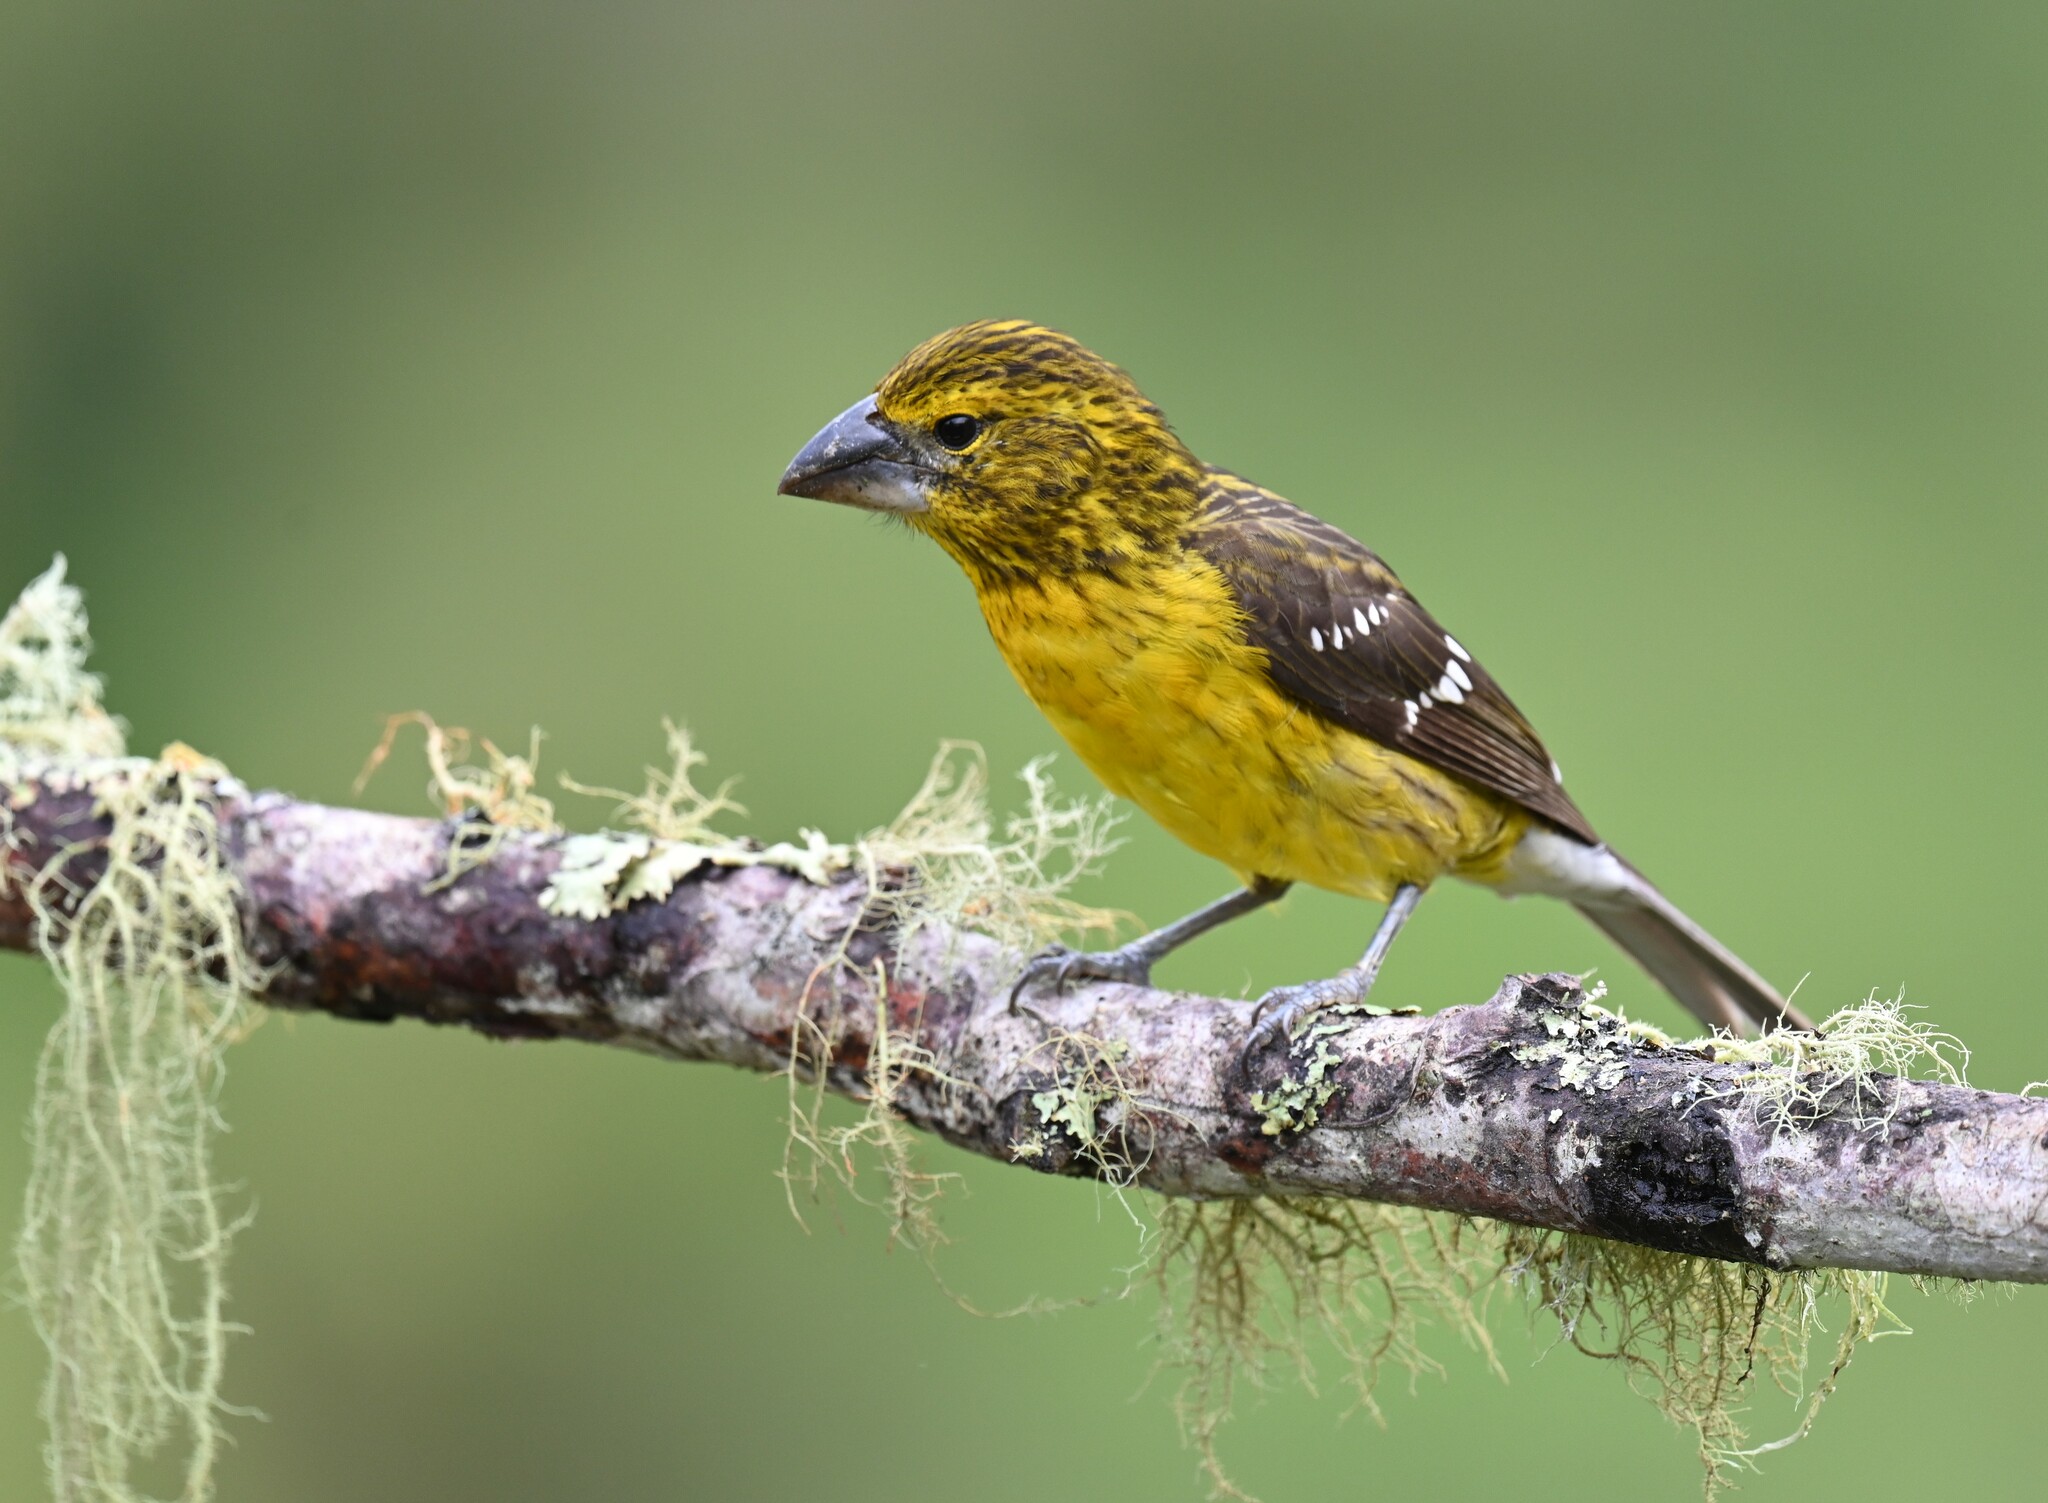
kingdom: Animalia
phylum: Chordata
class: Aves
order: Passeriformes
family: Cardinalidae
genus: Pheucticus
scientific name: Pheucticus chrysogaster
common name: Golden grosbeak
